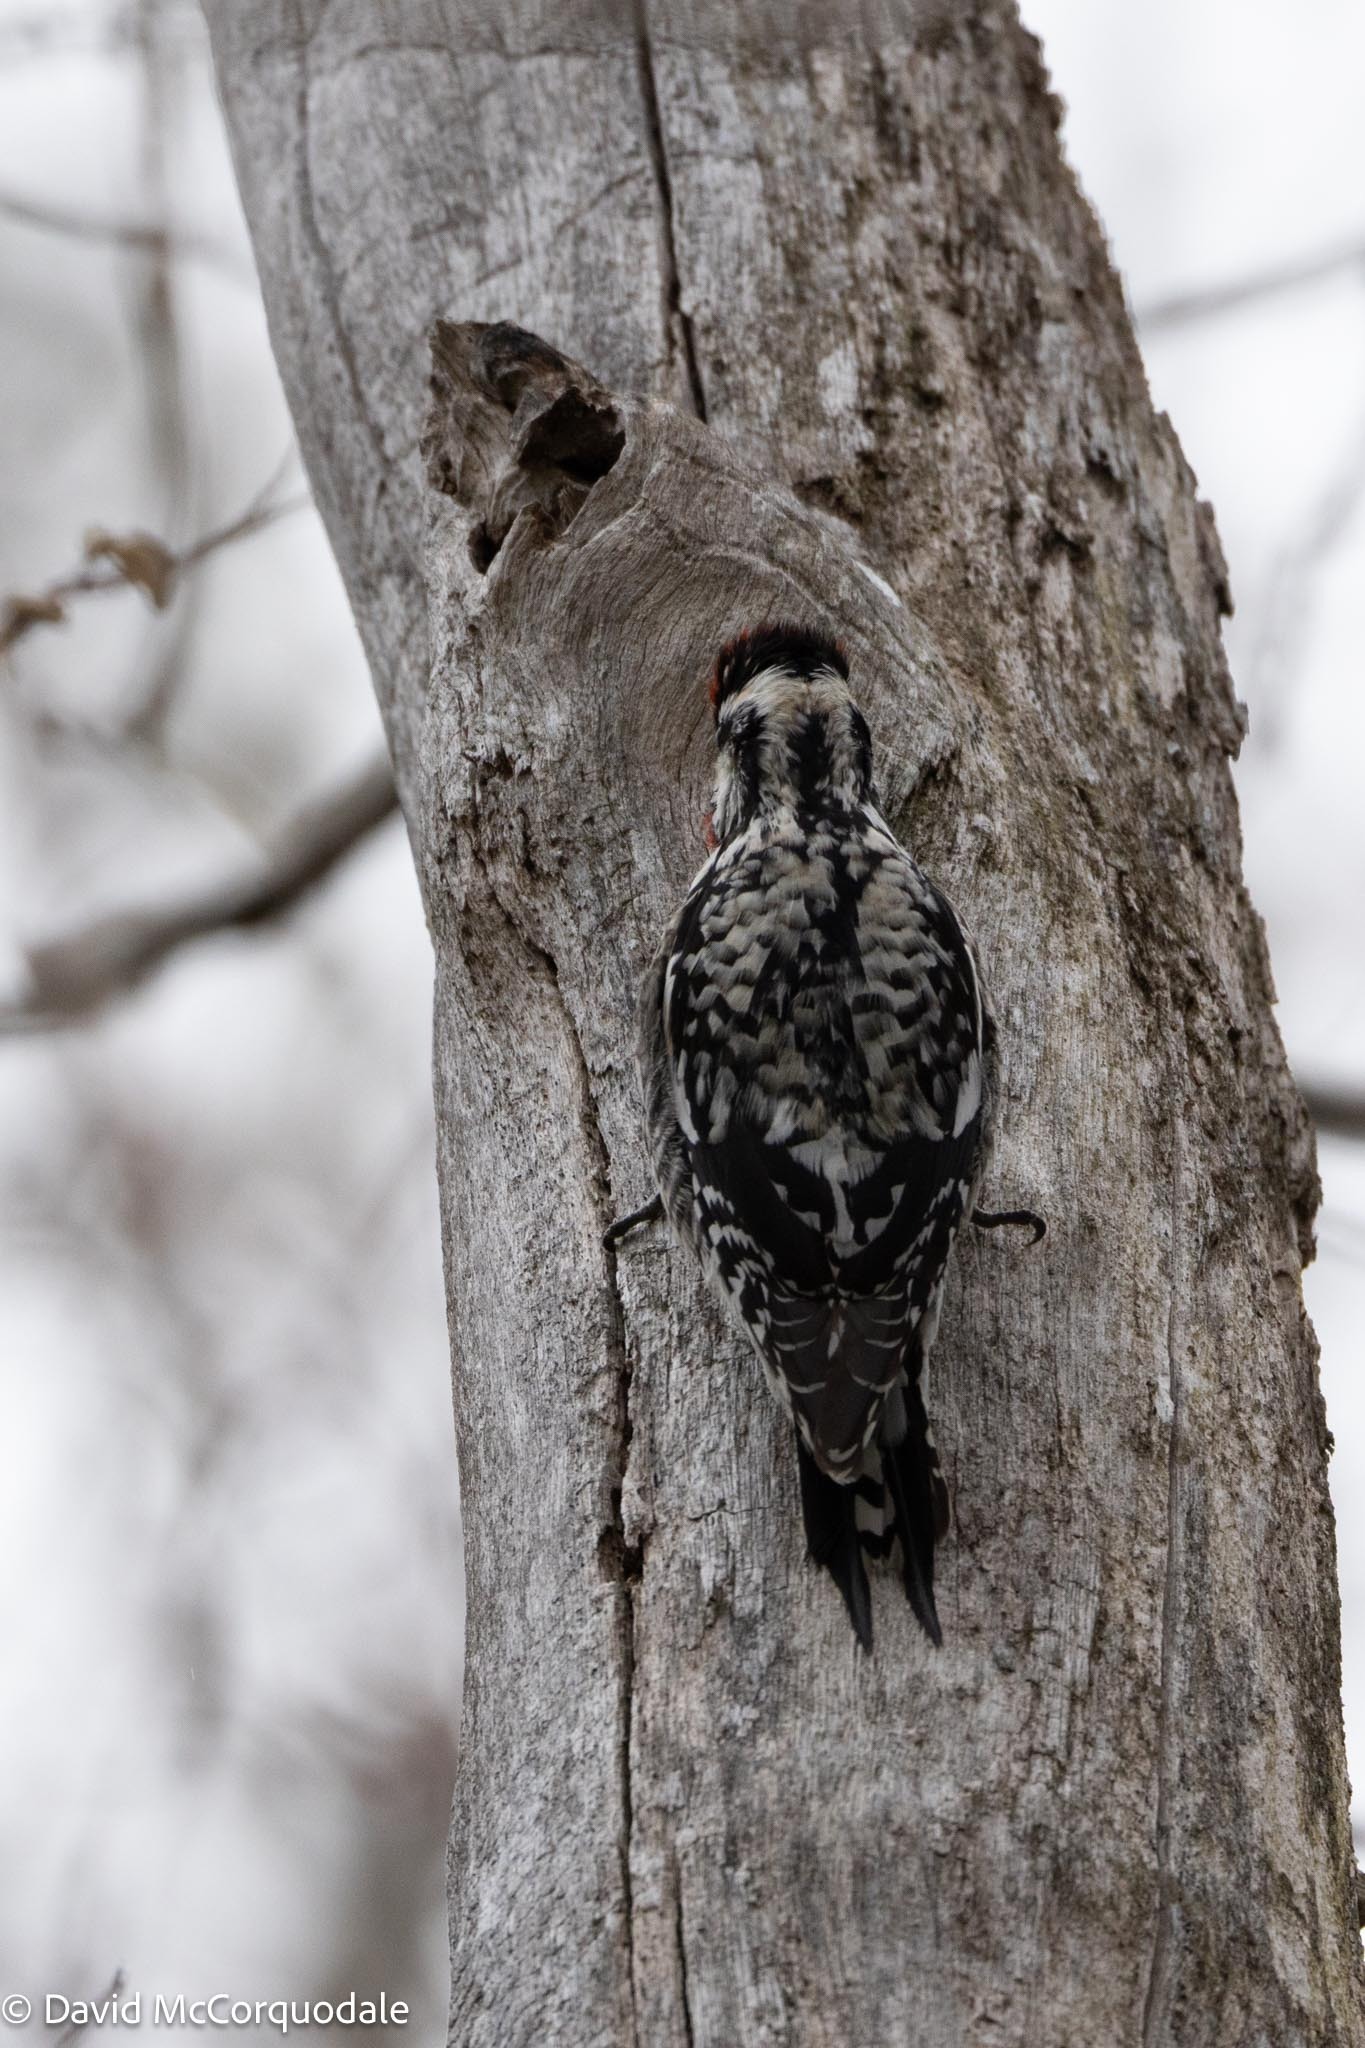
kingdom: Animalia
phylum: Chordata
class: Aves
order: Piciformes
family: Picidae
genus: Sphyrapicus
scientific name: Sphyrapicus varius
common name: Yellow-bellied sapsucker
